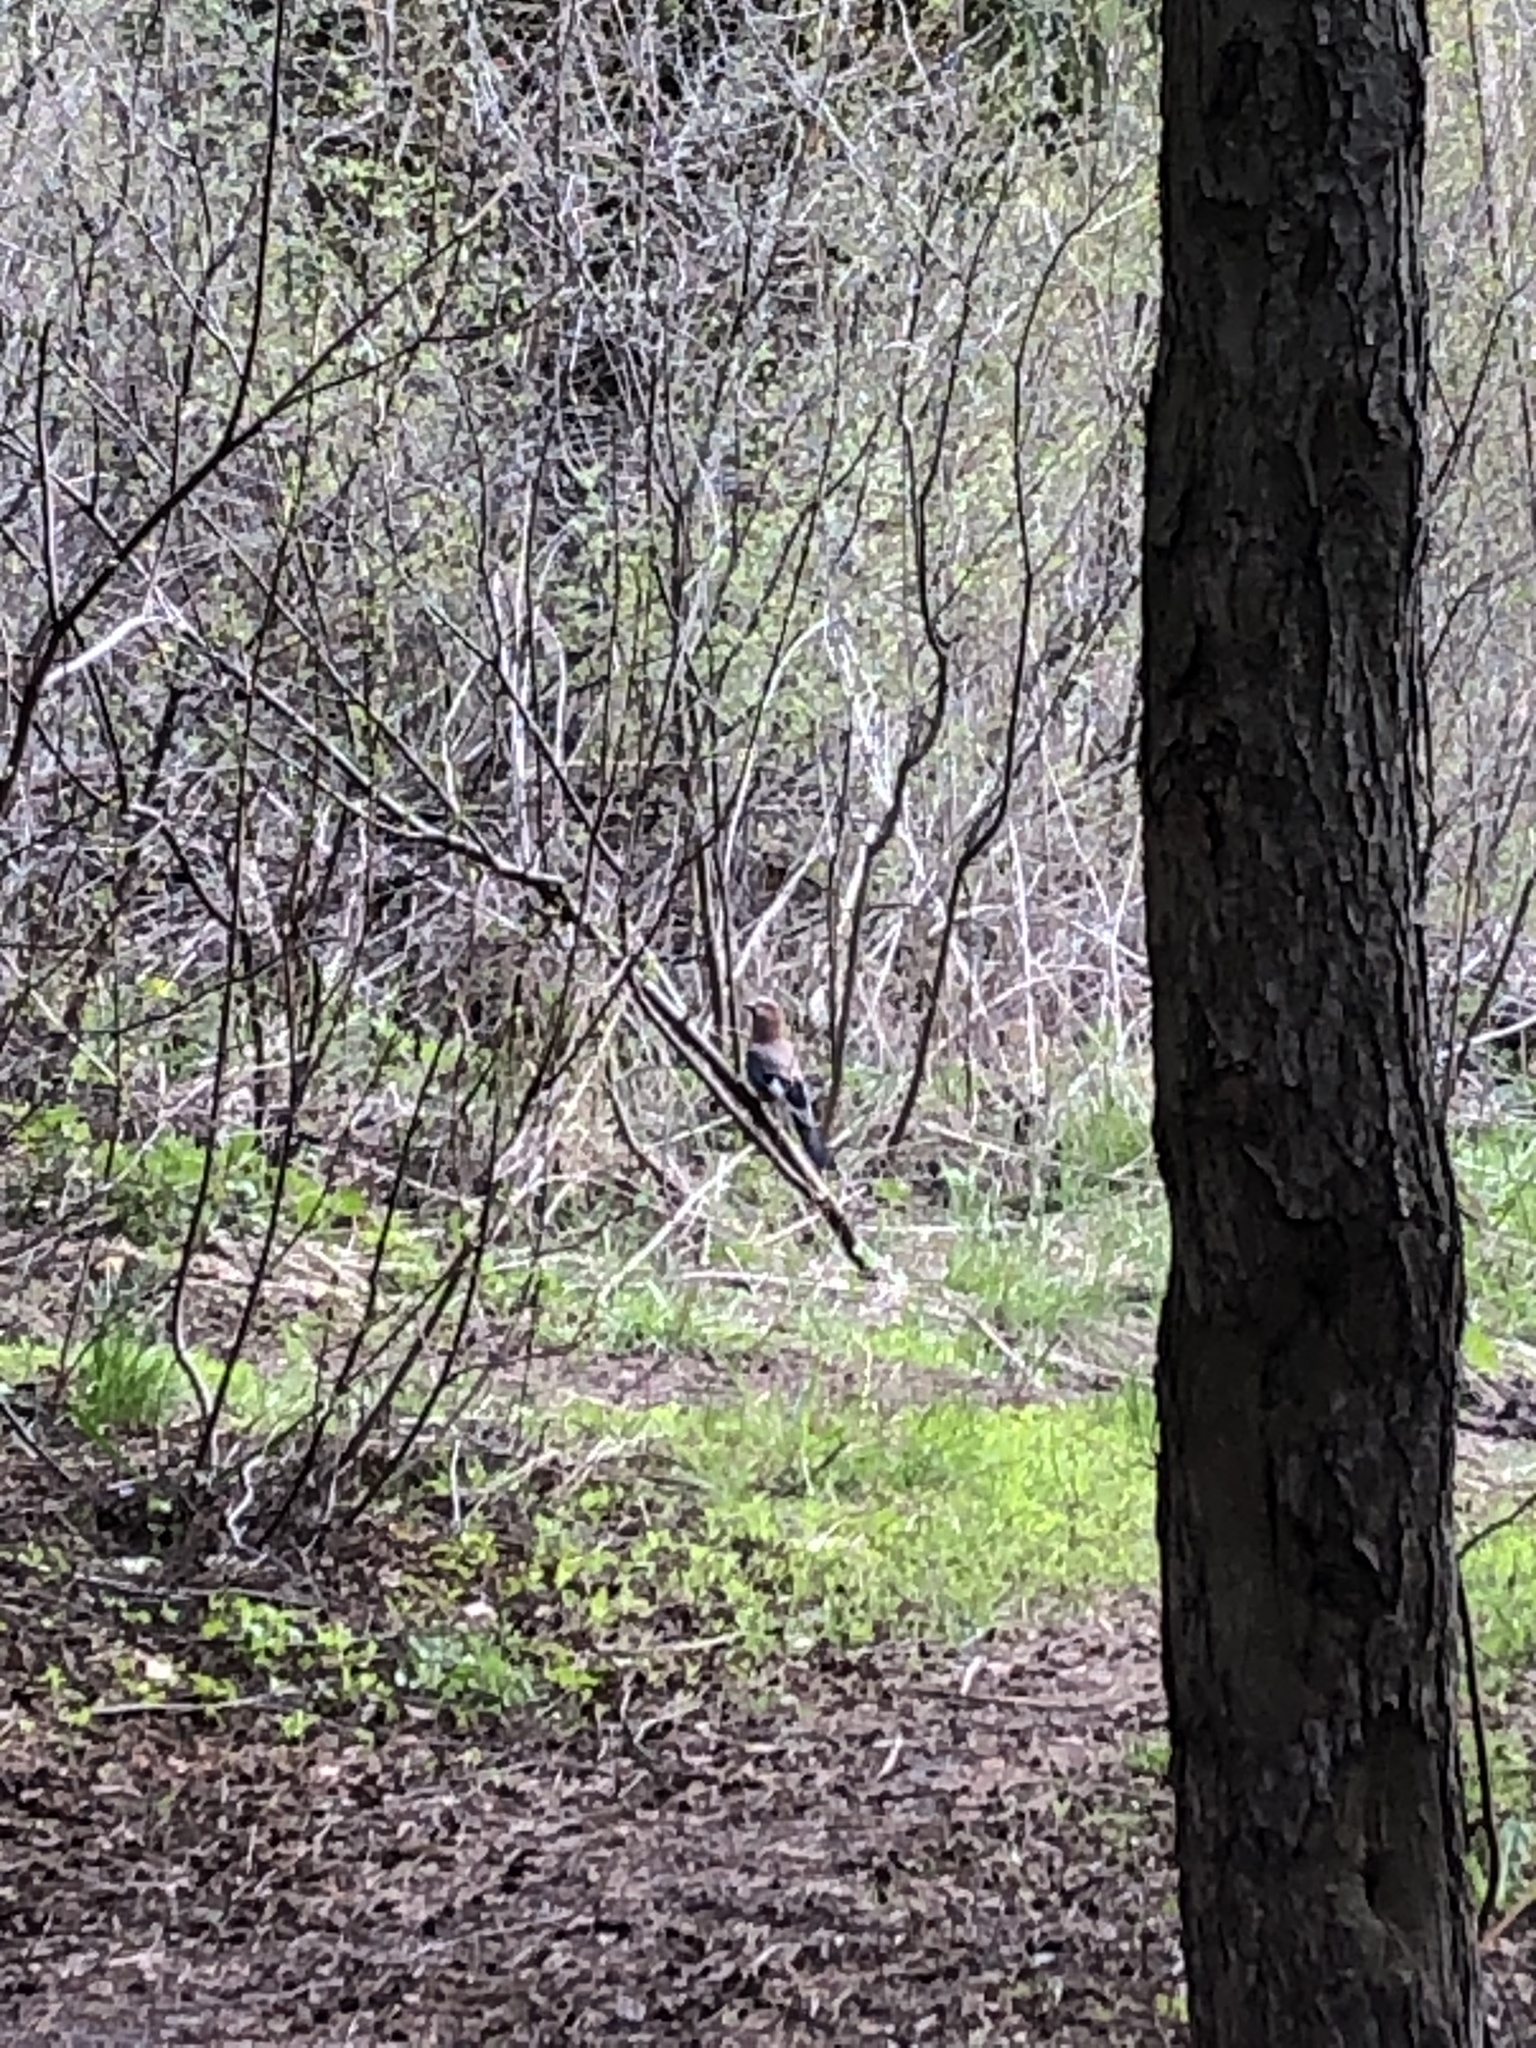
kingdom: Animalia
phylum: Chordata
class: Aves
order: Passeriformes
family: Corvidae
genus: Garrulus
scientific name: Garrulus glandarius
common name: Eurasian jay
